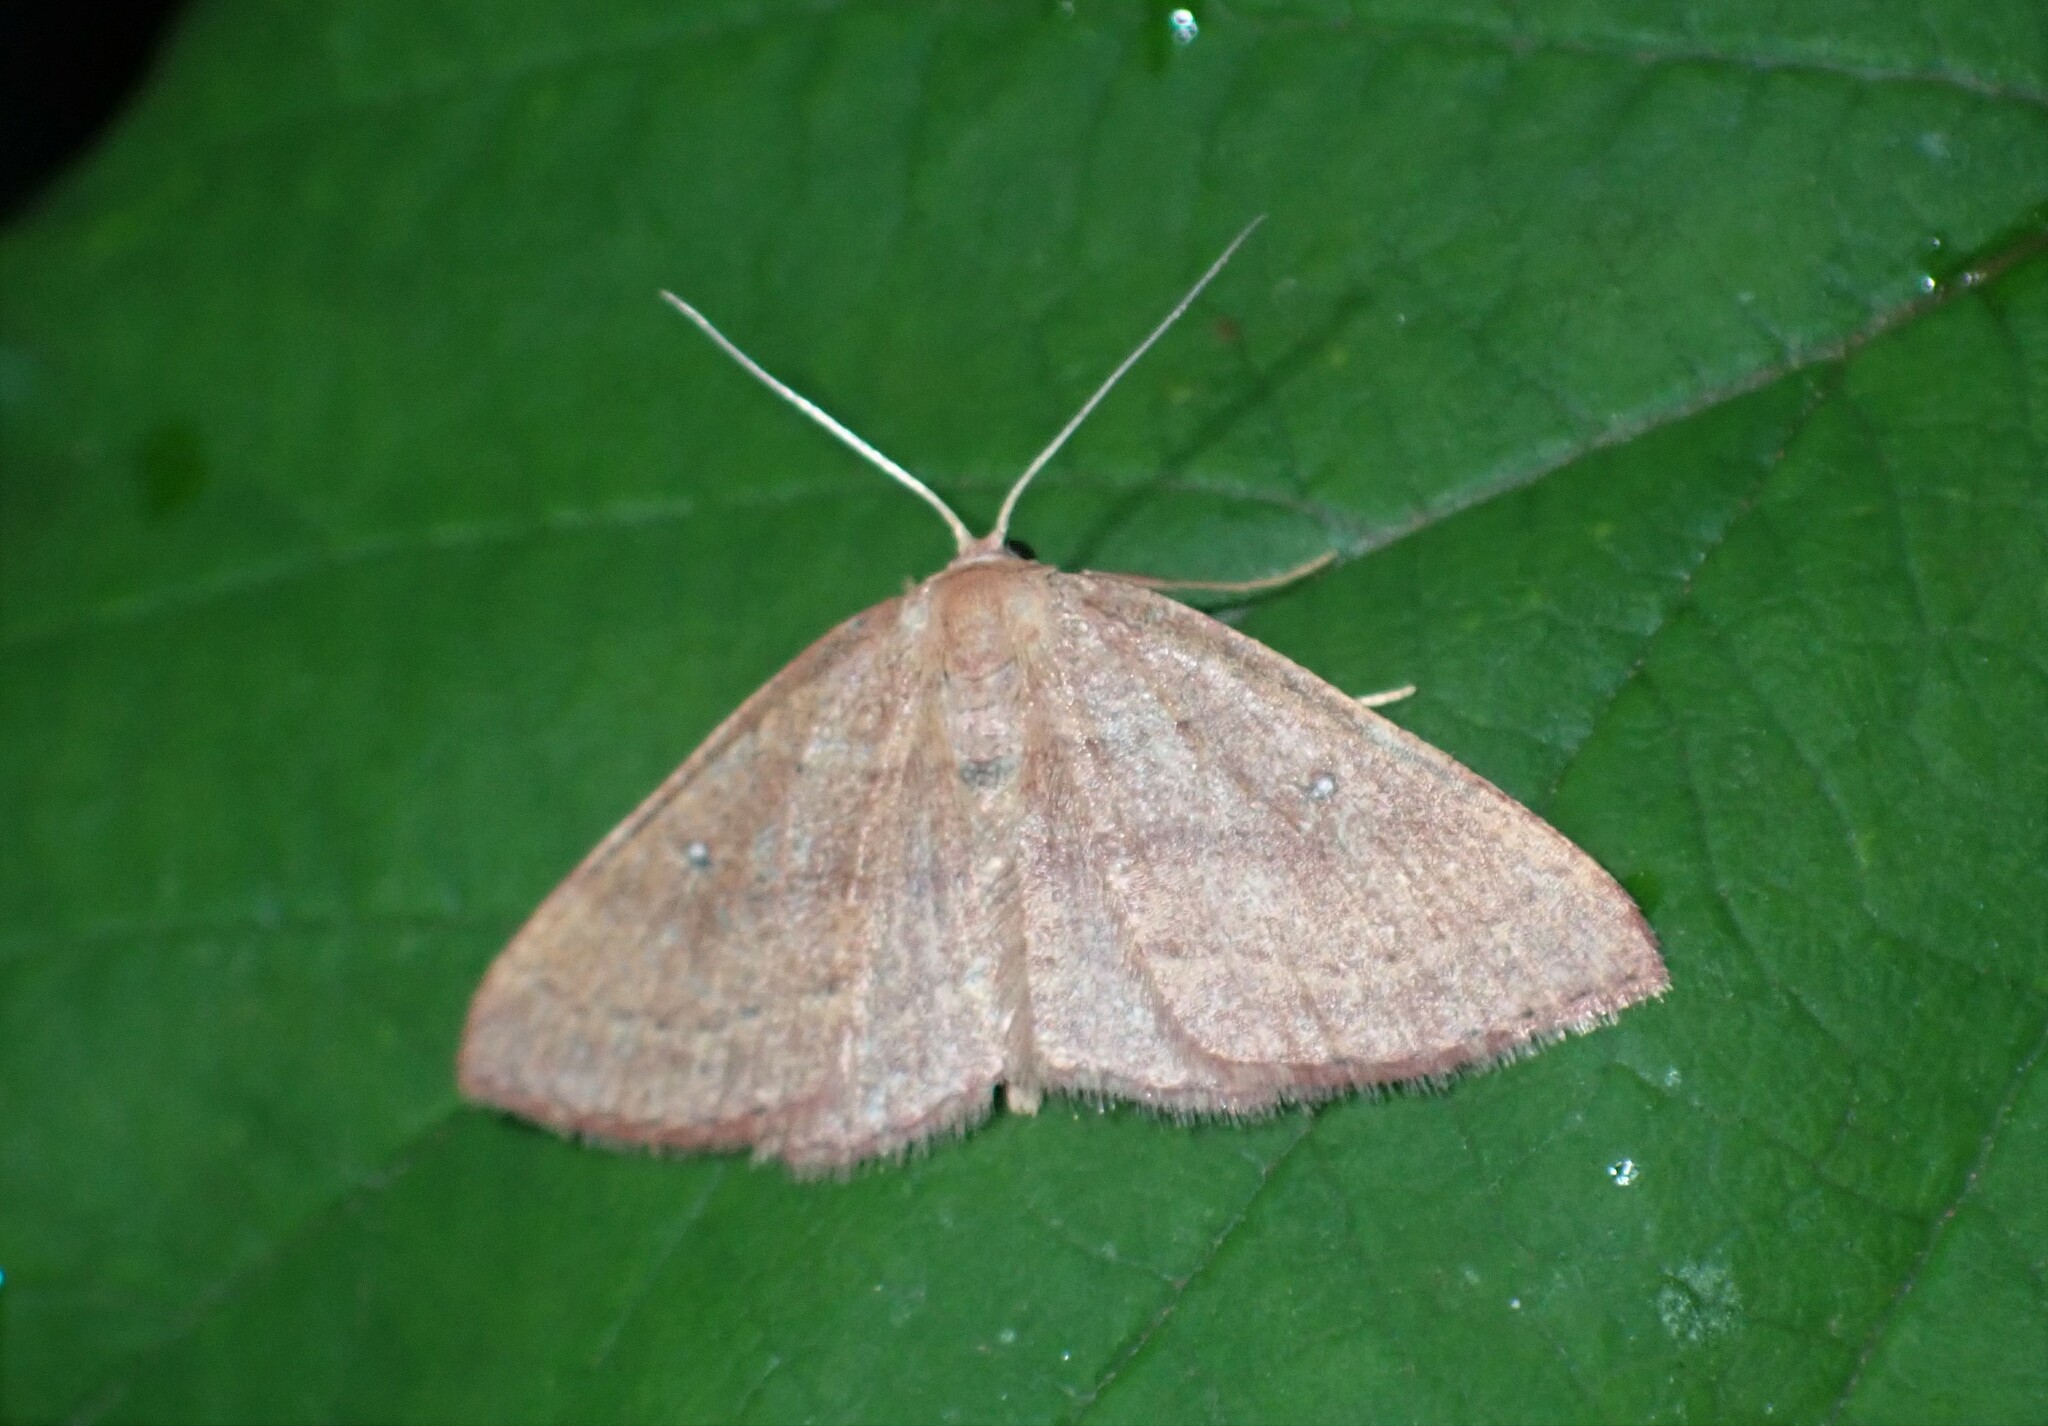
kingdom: Animalia
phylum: Arthropoda
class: Insecta
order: Lepidoptera
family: Geometridae
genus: Cyclophora
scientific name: Cyclophora azorensis
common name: Geometer moth
